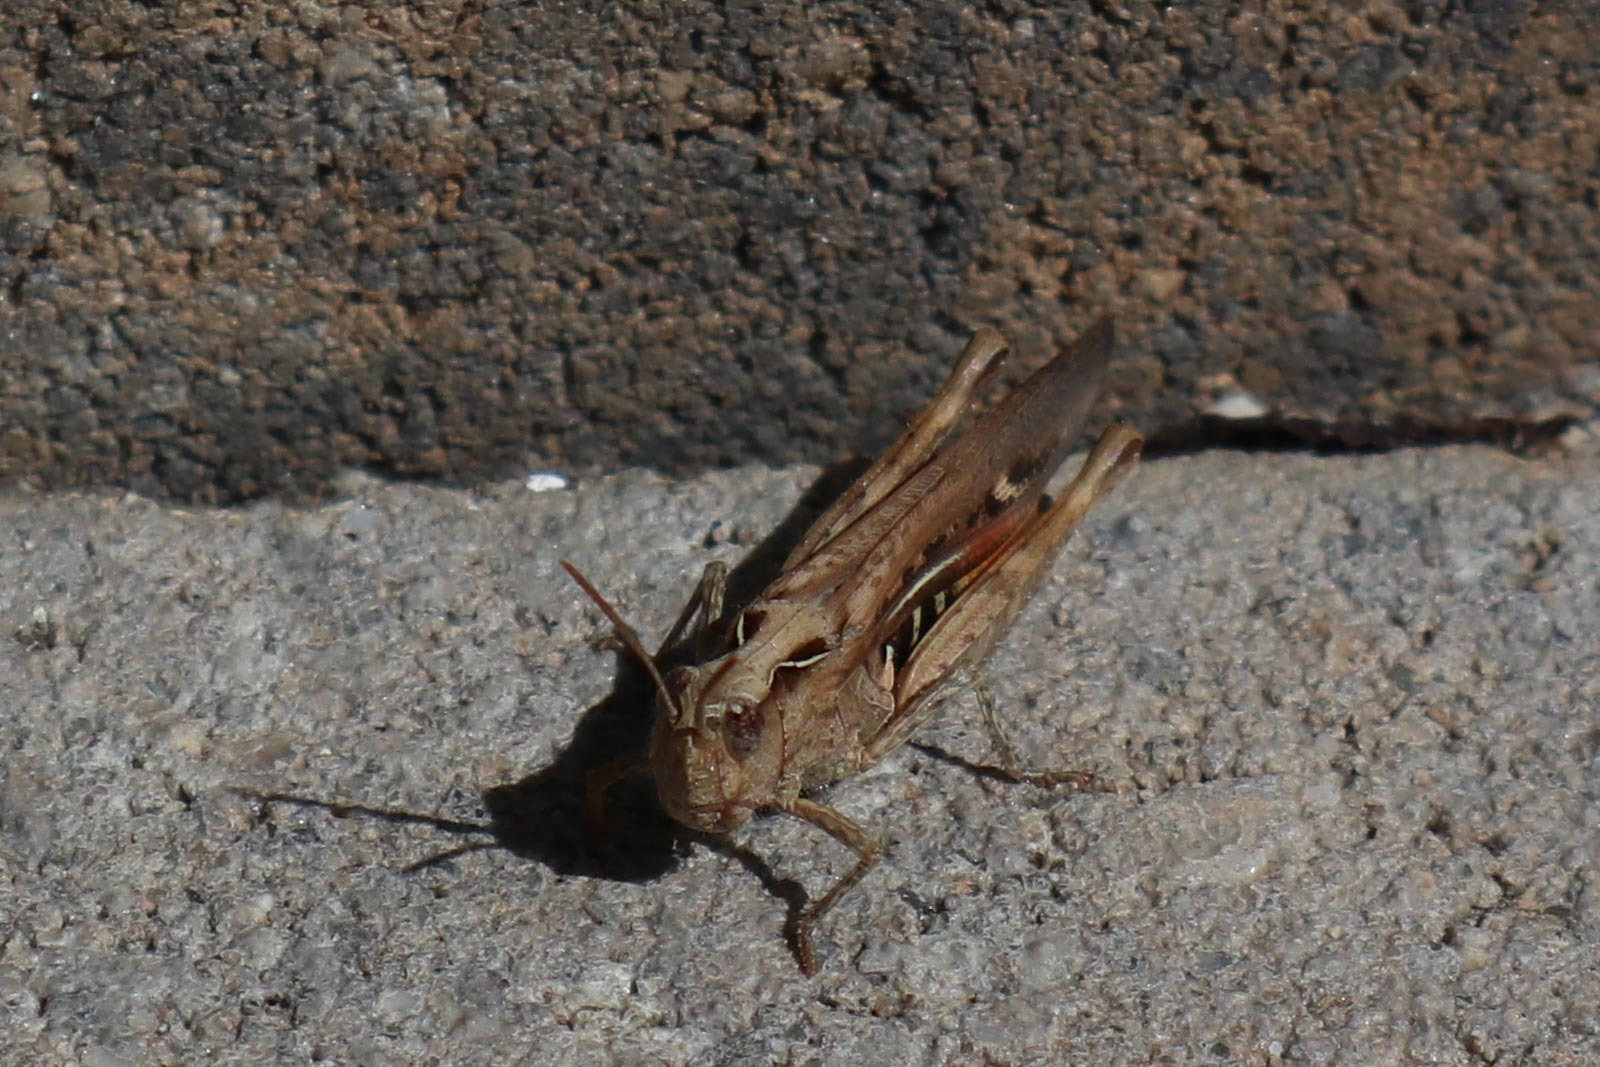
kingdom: Animalia
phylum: Arthropoda
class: Insecta
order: Orthoptera
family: Acrididae
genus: Chorthippus
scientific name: Chorthippus maritimus
